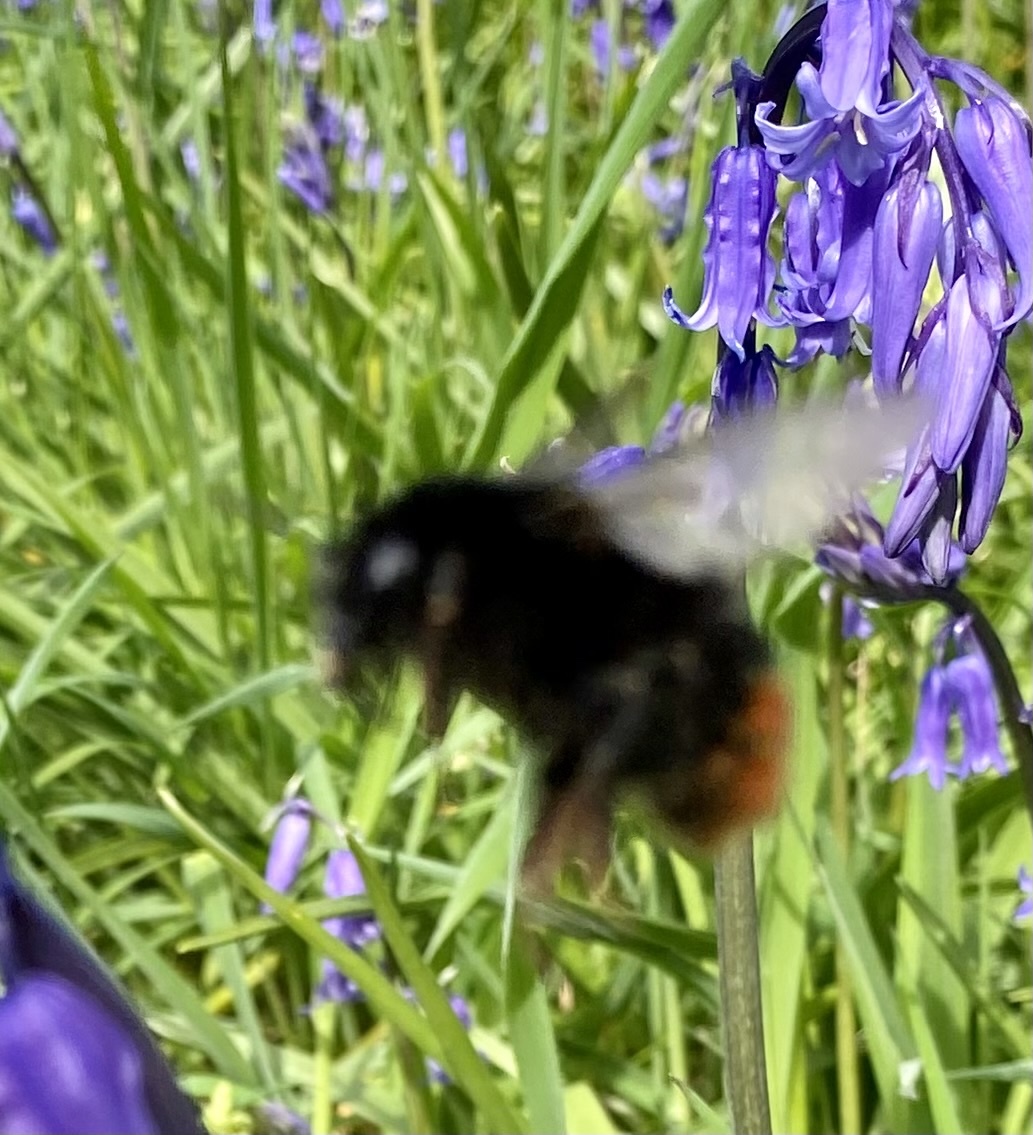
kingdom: Animalia
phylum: Arthropoda
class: Insecta
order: Hymenoptera
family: Apidae
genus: Bombus
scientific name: Bombus lapidarius
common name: Large red-tailed humble-bee
